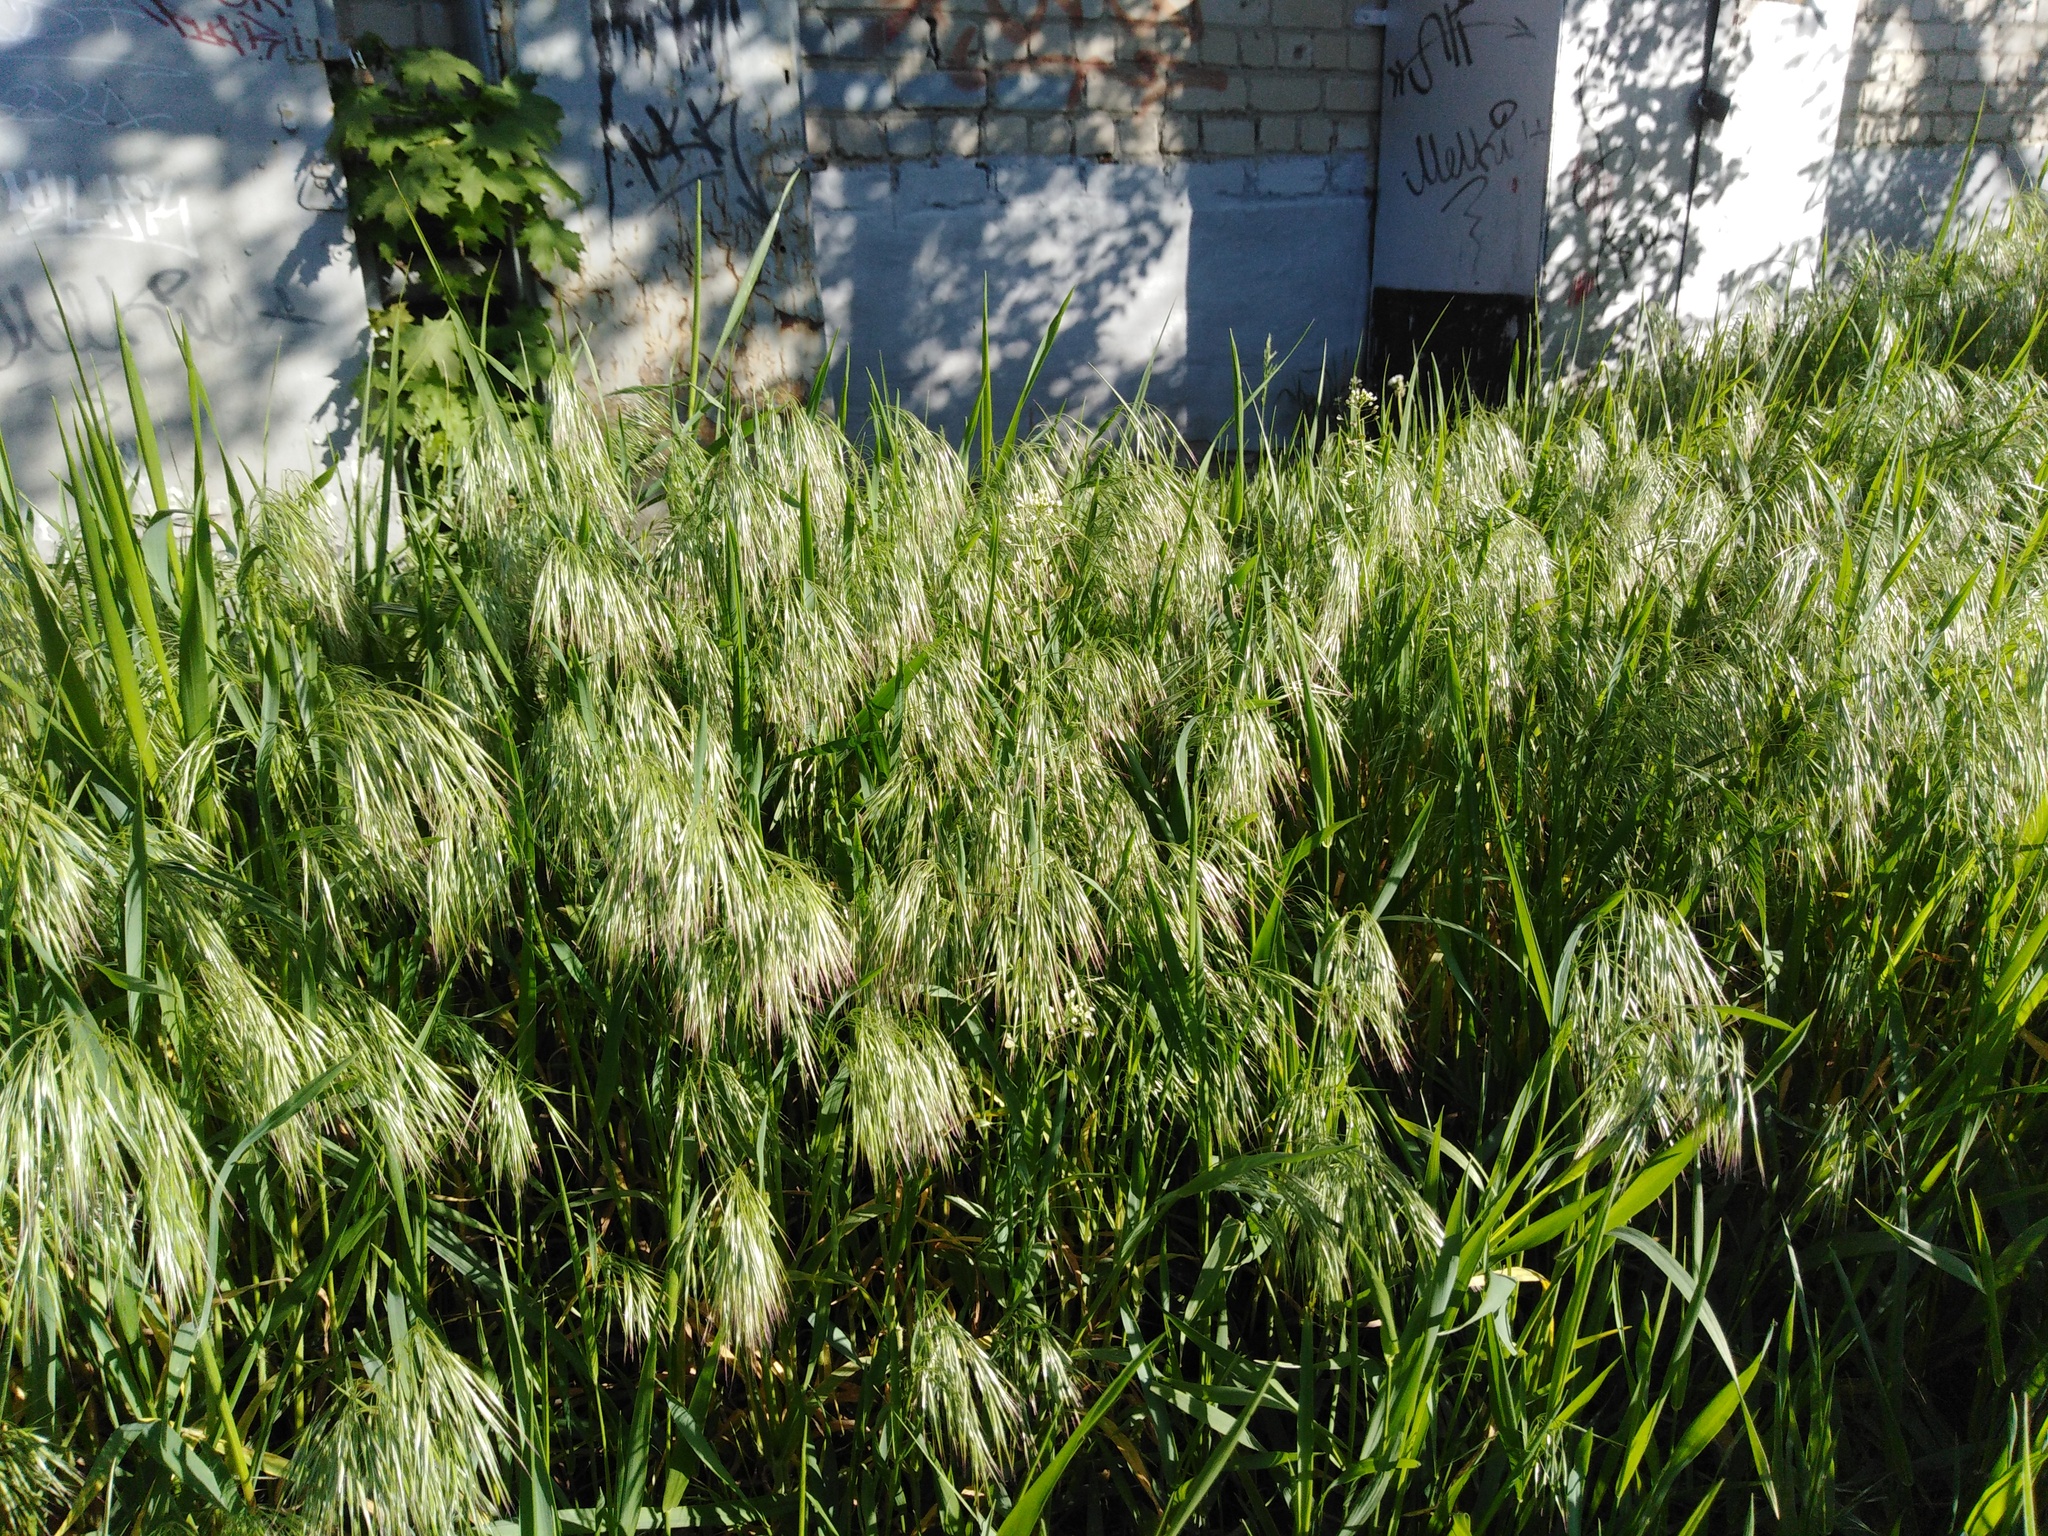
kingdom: Plantae
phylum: Tracheophyta
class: Liliopsida
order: Poales
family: Poaceae
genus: Bromus
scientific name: Bromus tectorum
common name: Cheatgrass
